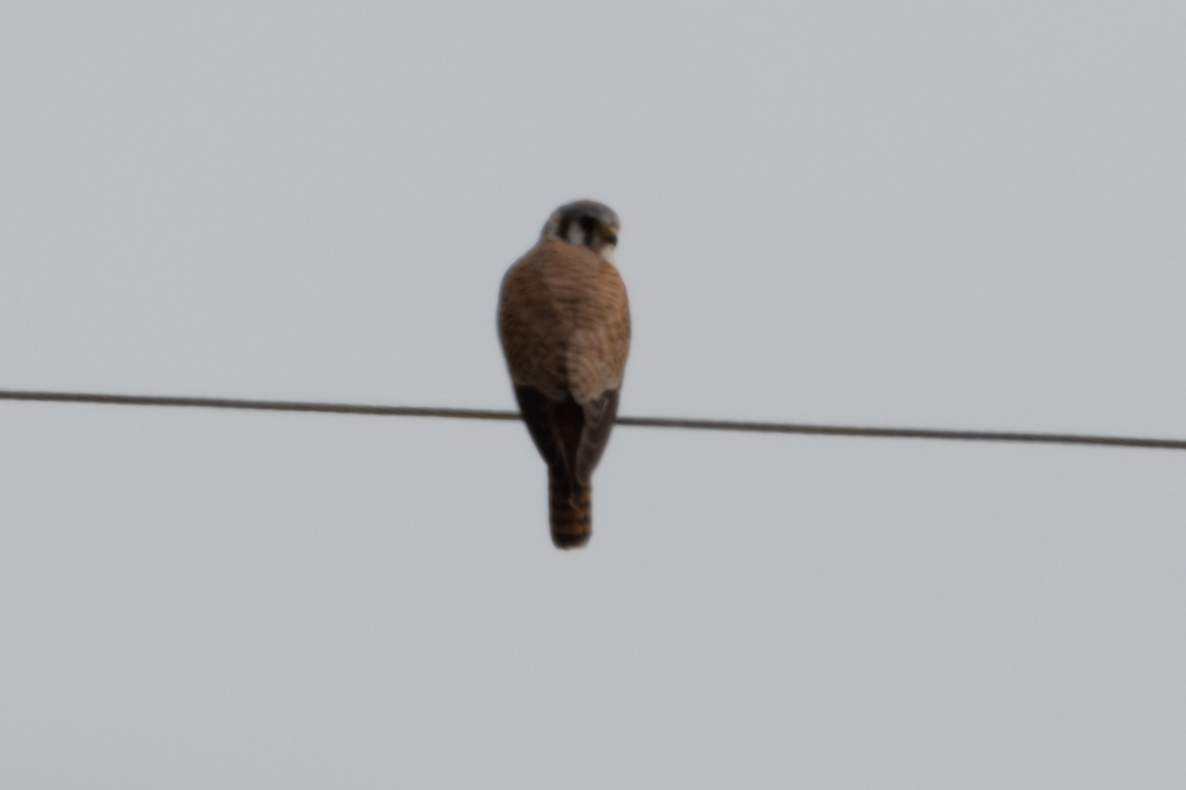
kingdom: Animalia
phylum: Chordata
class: Aves
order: Falconiformes
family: Falconidae
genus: Falco
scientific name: Falco sparverius
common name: American kestrel
